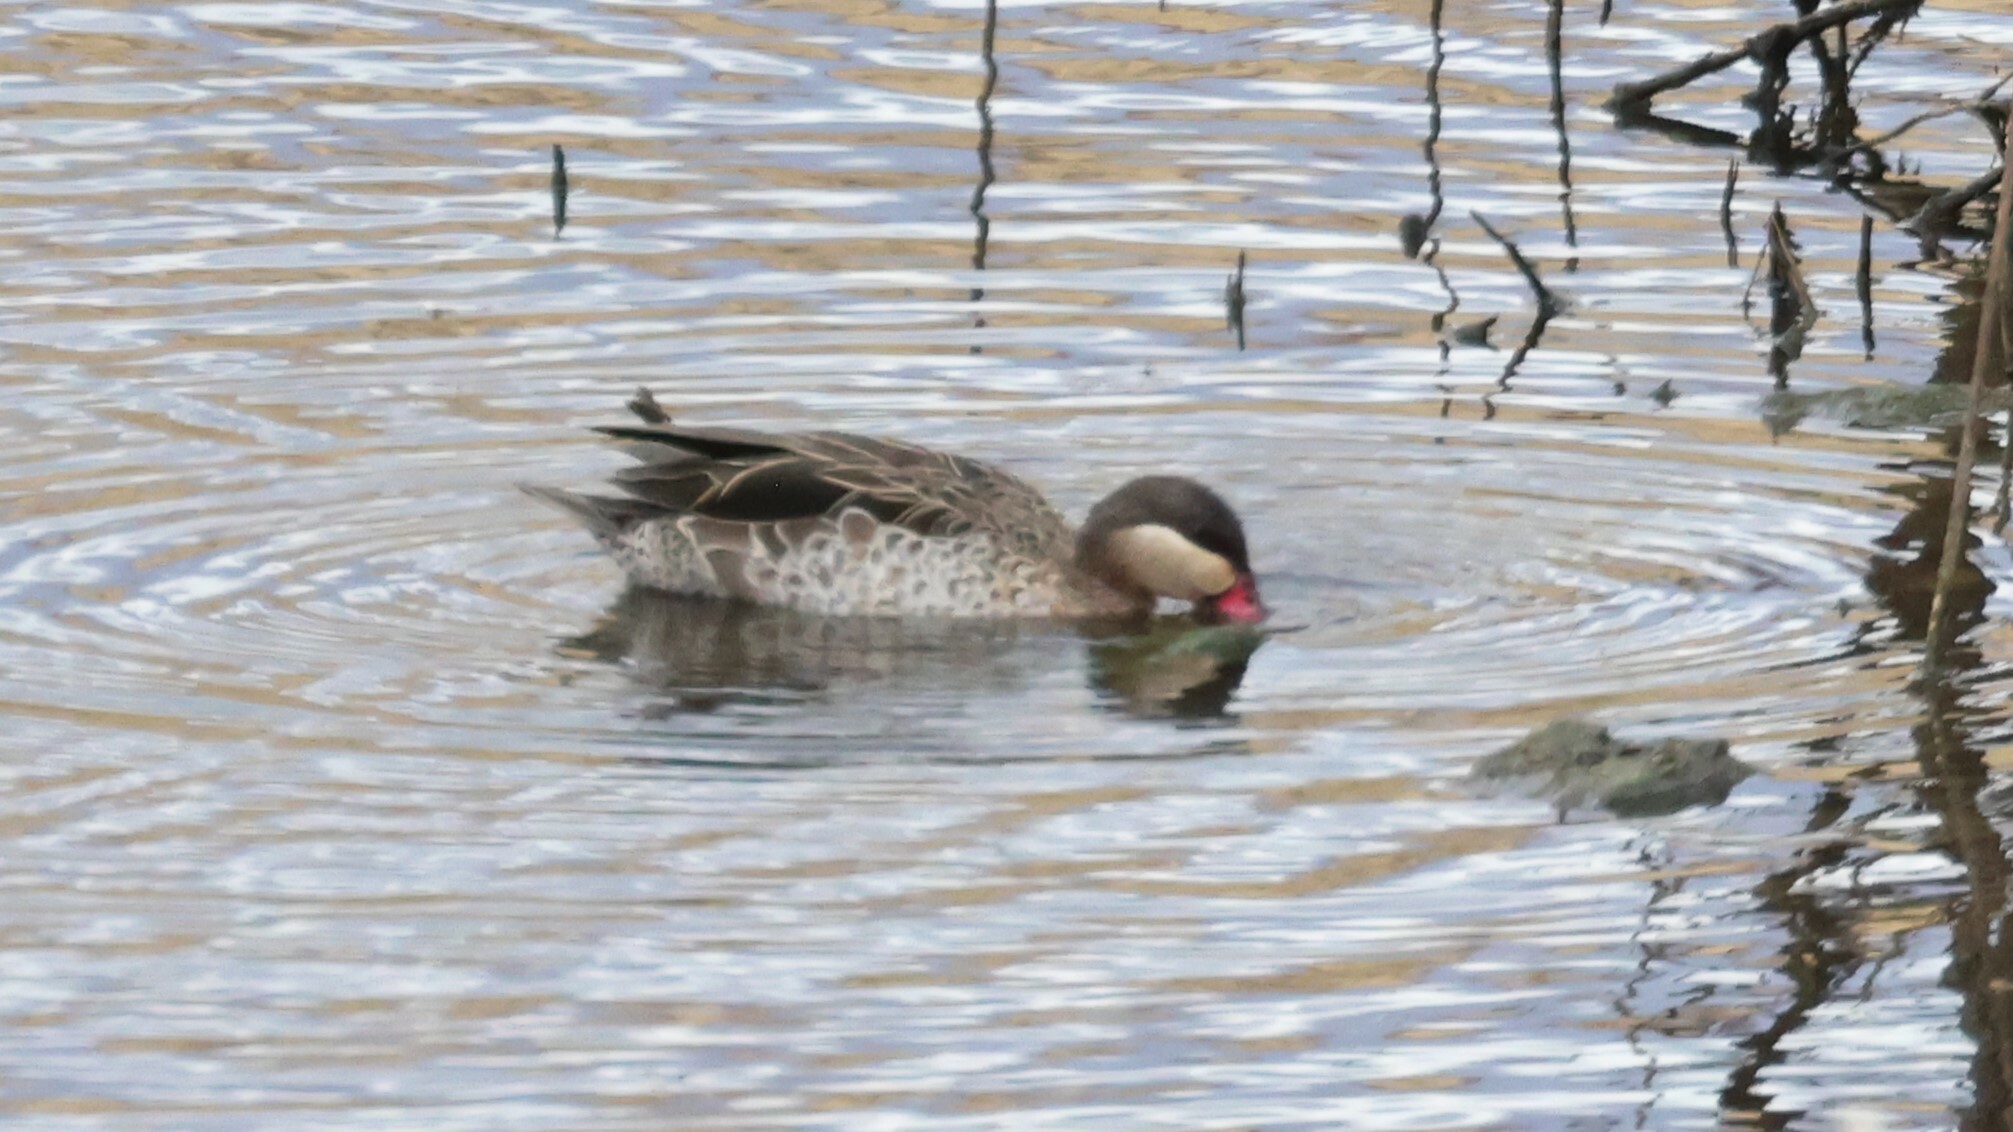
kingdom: Animalia
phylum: Chordata
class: Aves
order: Anseriformes
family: Anatidae
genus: Anas
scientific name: Anas erythrorhyncha
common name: Red-billed teal
